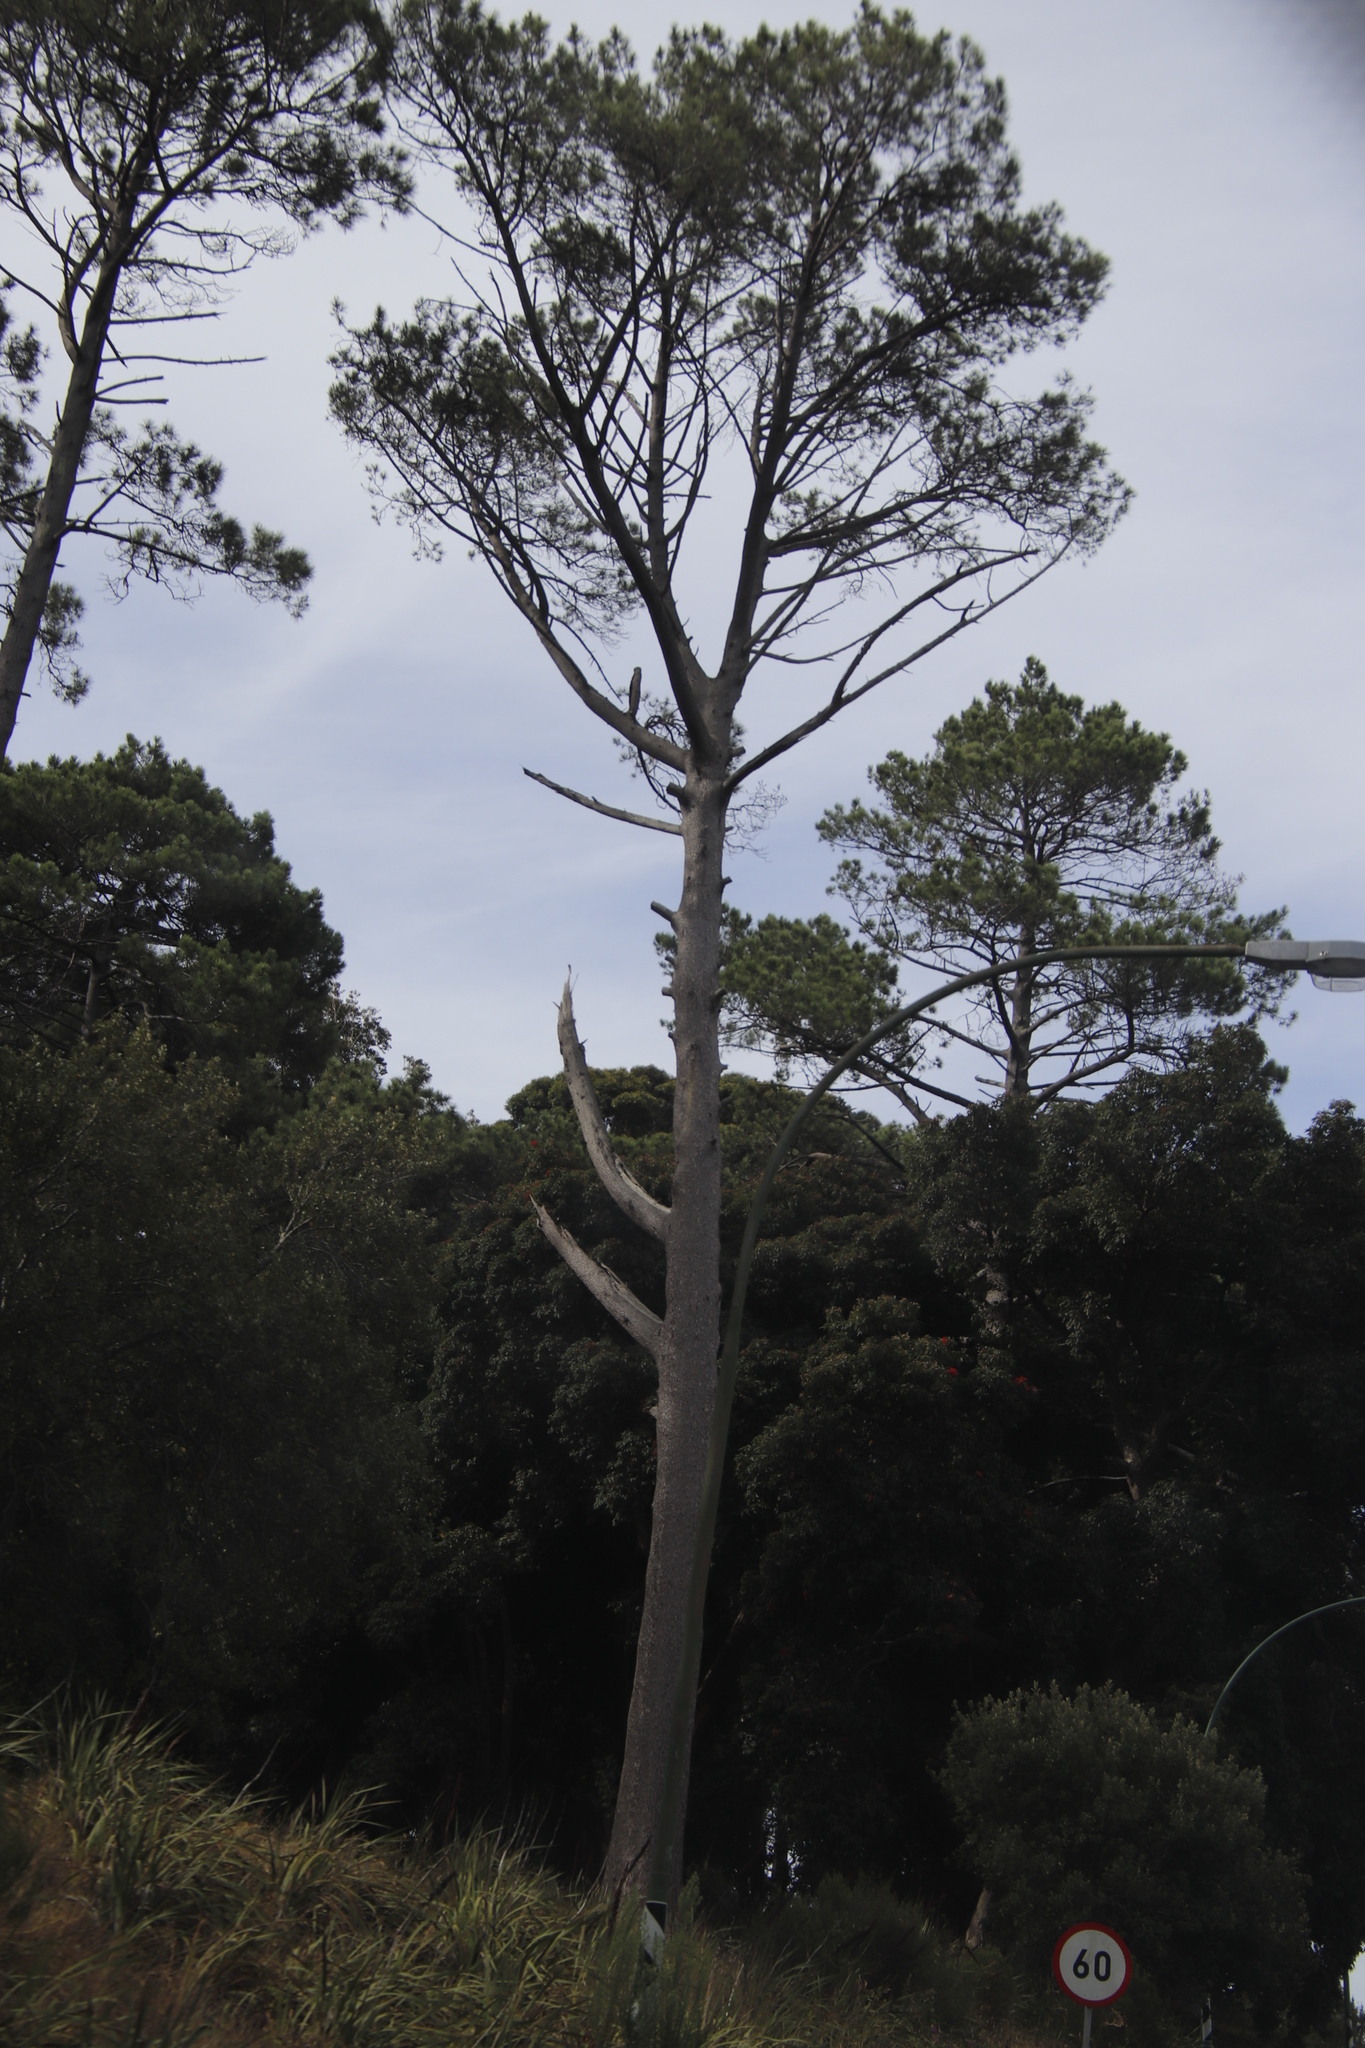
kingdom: Plantae
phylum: Tracheophyta
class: Pinopsida
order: Pinales
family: Pinaceae
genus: Pinus
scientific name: Pinus pinaster
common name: Maritime pine
